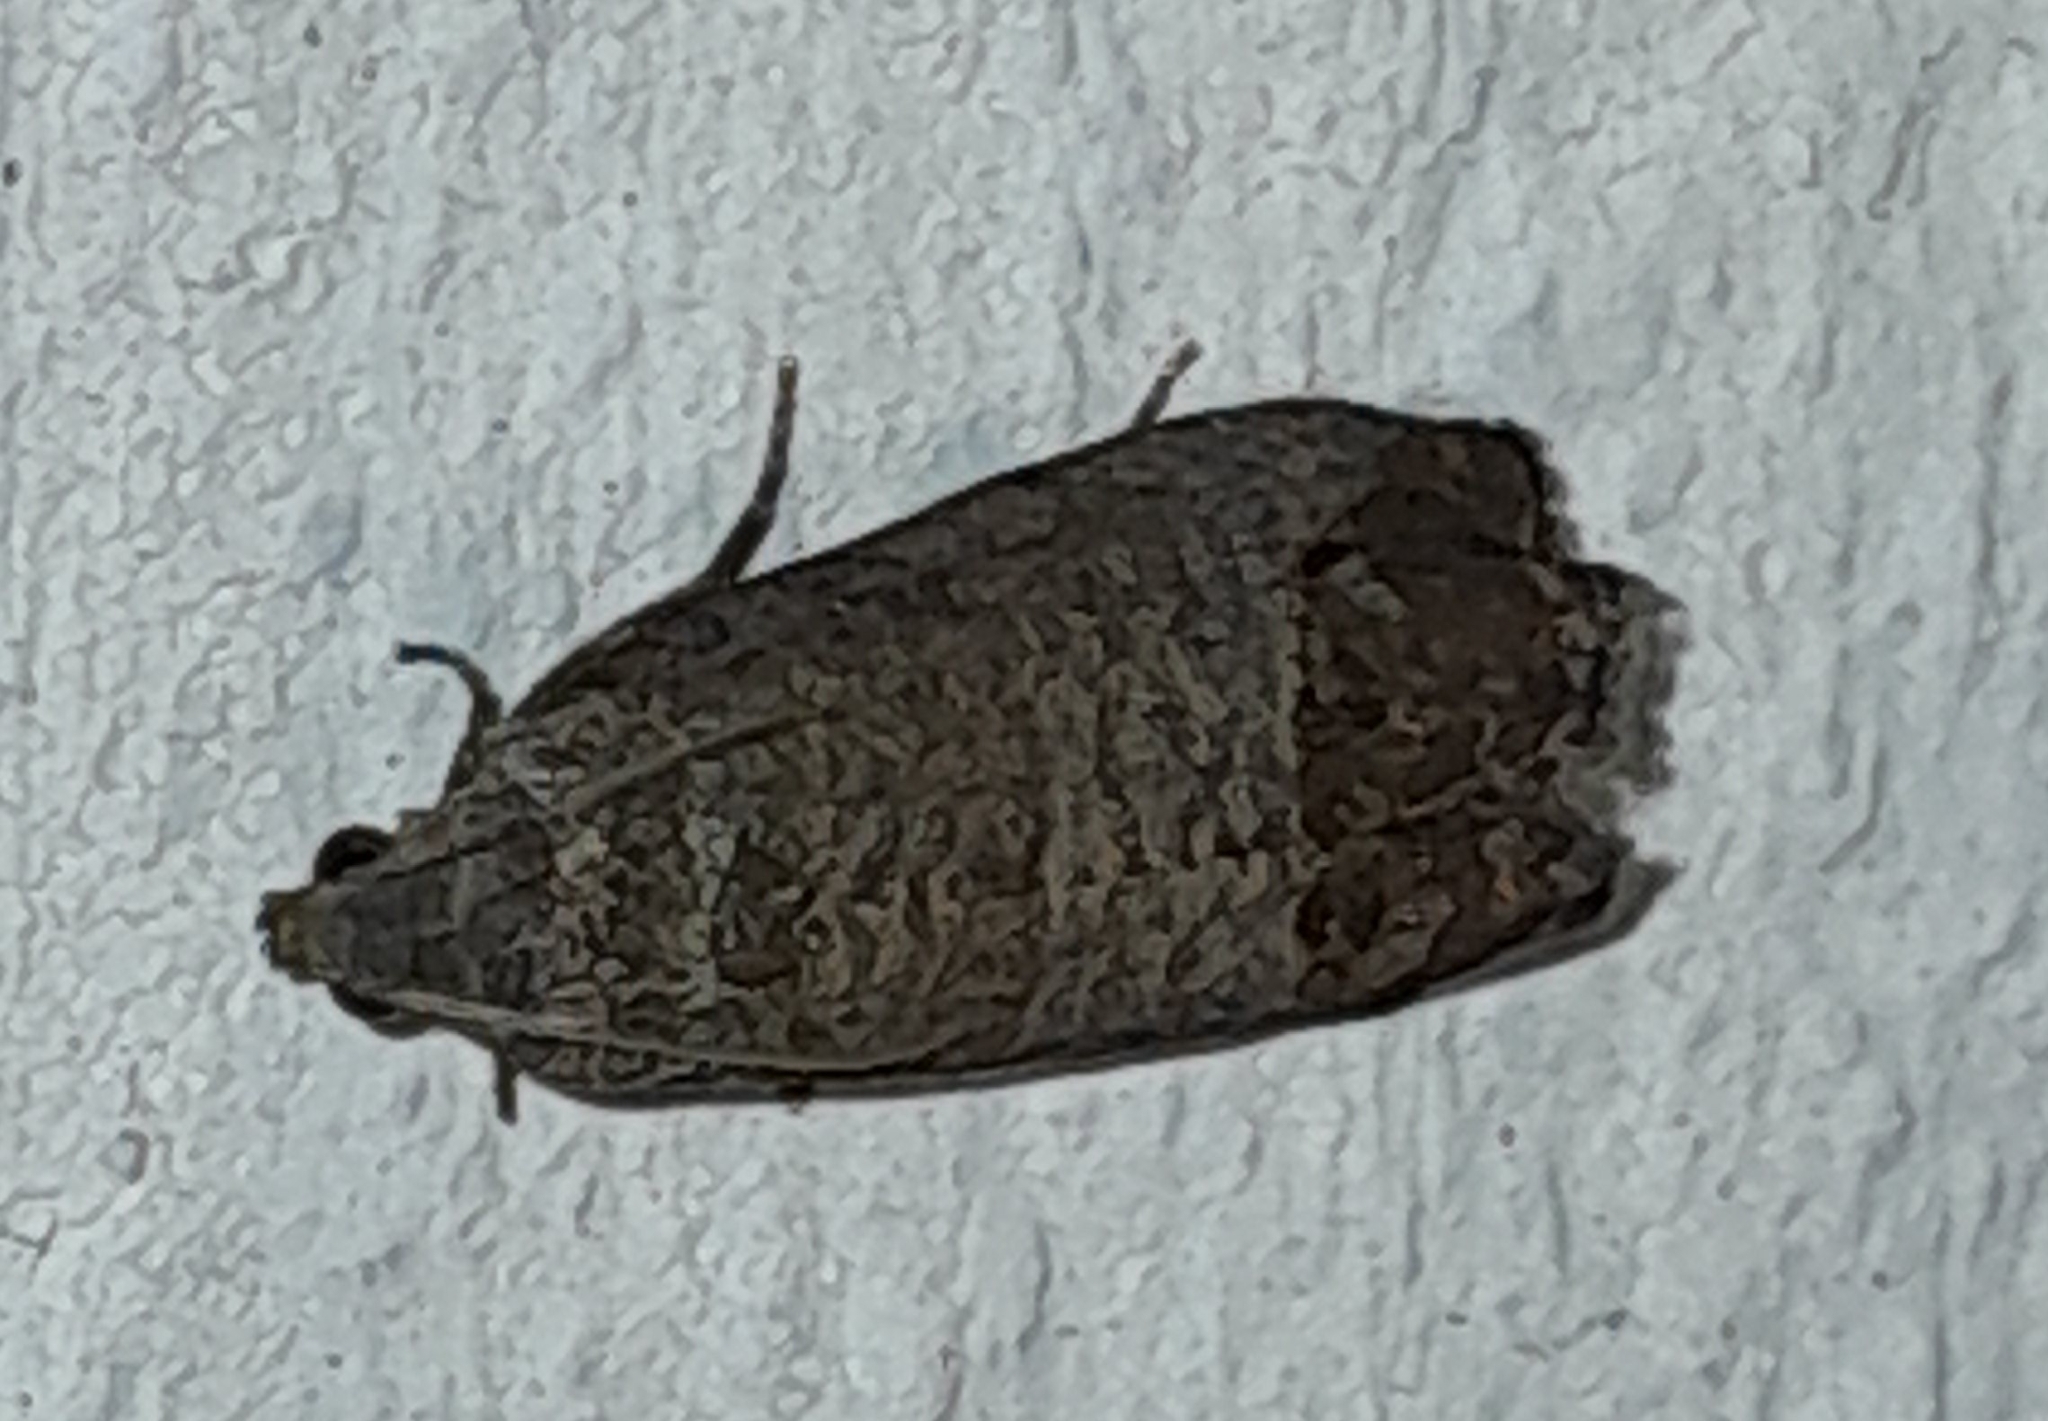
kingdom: Animalia
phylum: Arthropoda
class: Insecta
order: Lepidoptera
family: Tortricidae
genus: Cydia
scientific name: Cydia pomonella
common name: Codling moth
